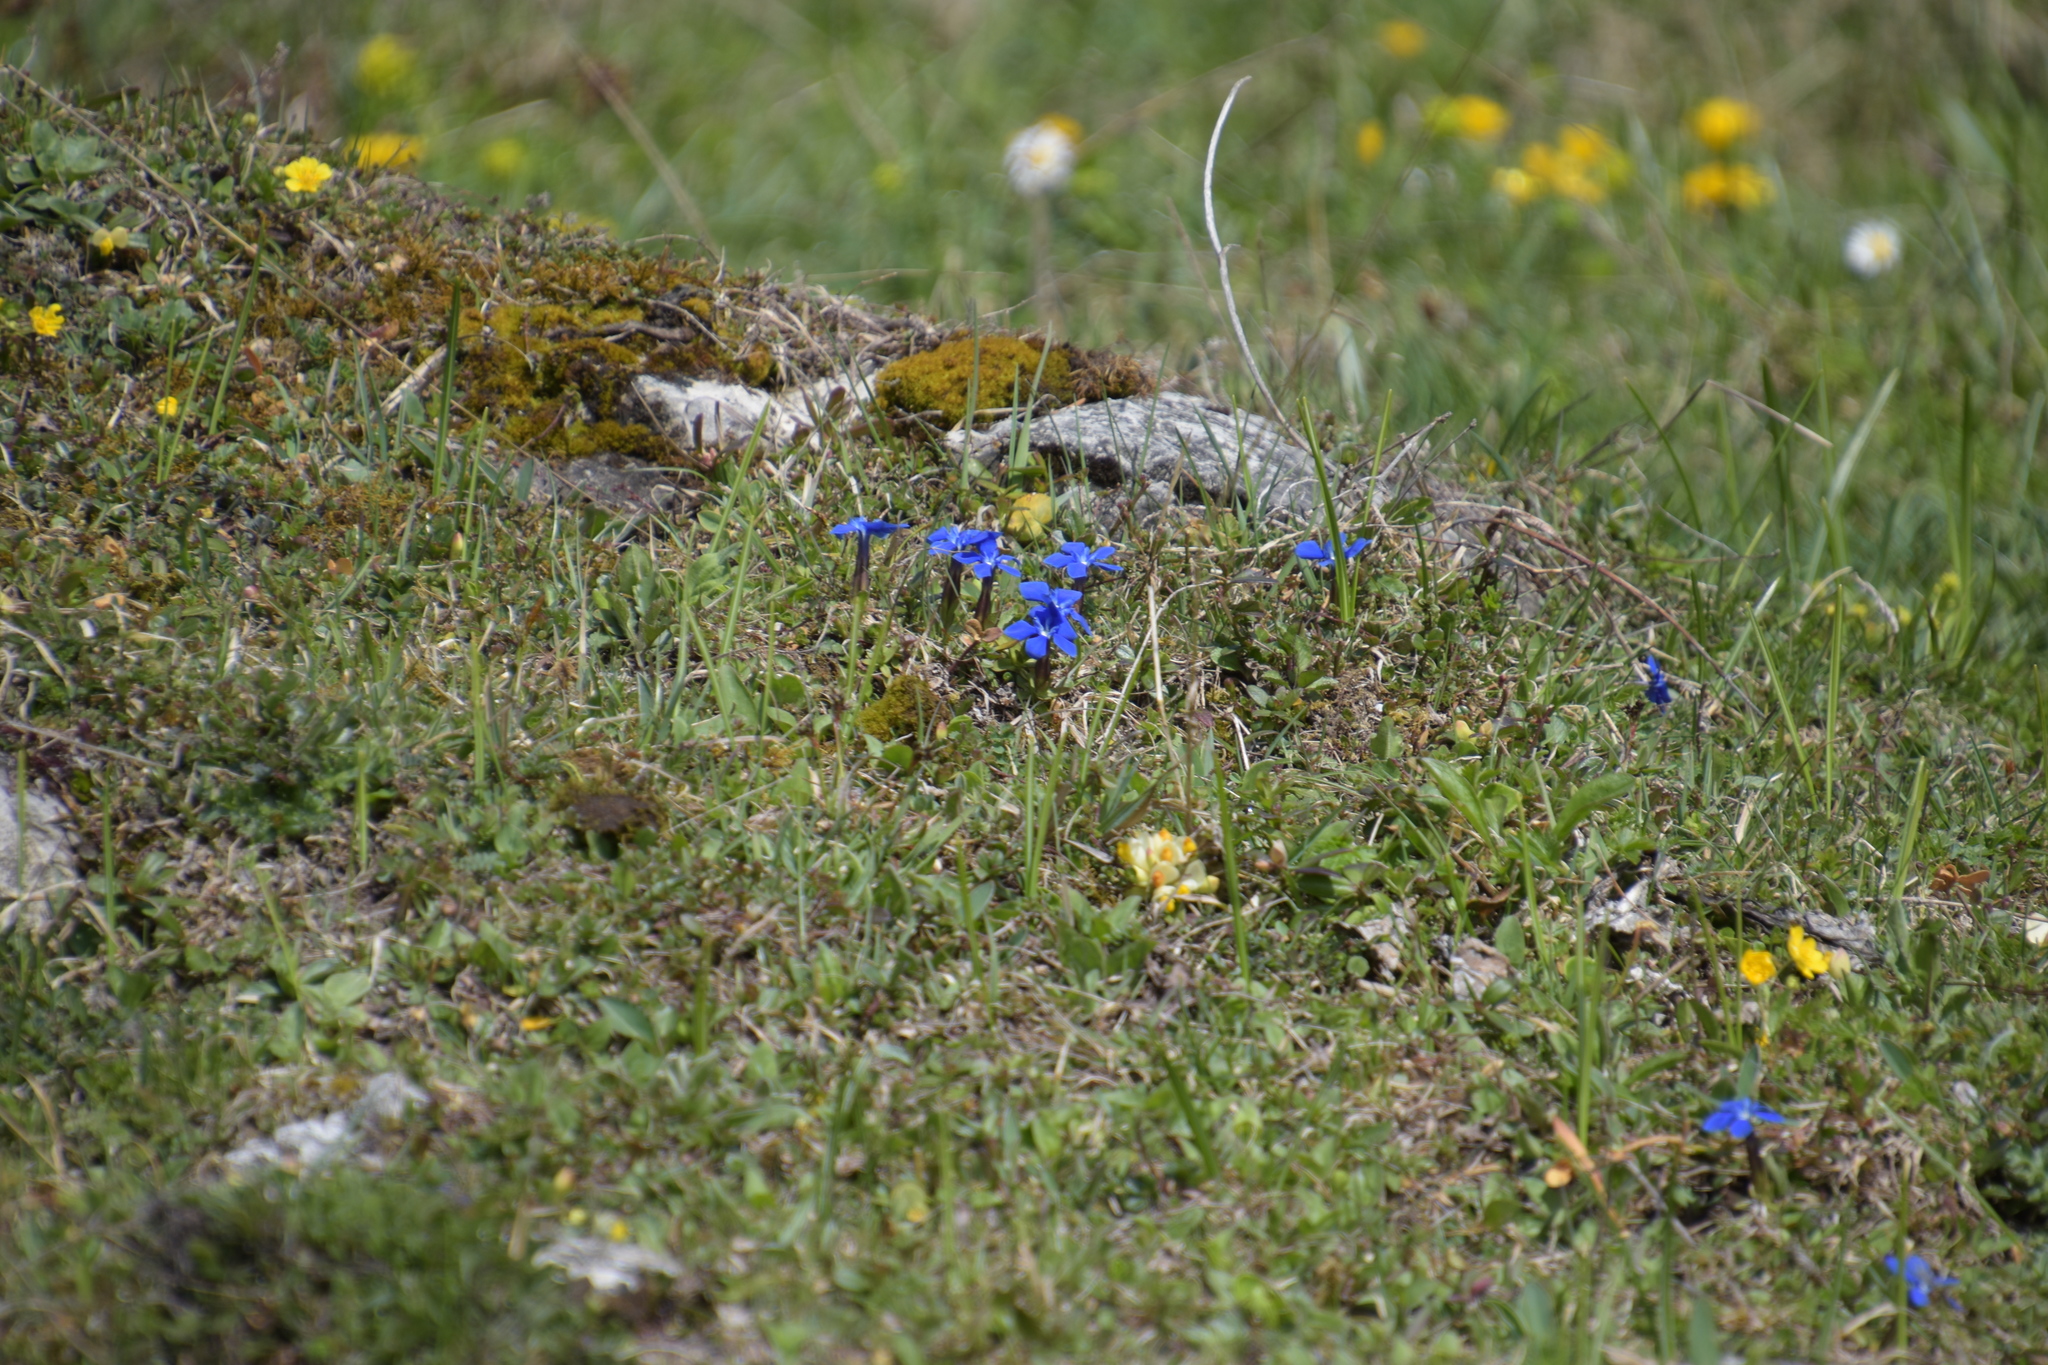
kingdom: Plantae
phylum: Tracheophyta
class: Magnoliopsida
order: Gentianales
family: Gentianaceae
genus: Gentiana
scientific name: Gentiana verna
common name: Spring gentian
